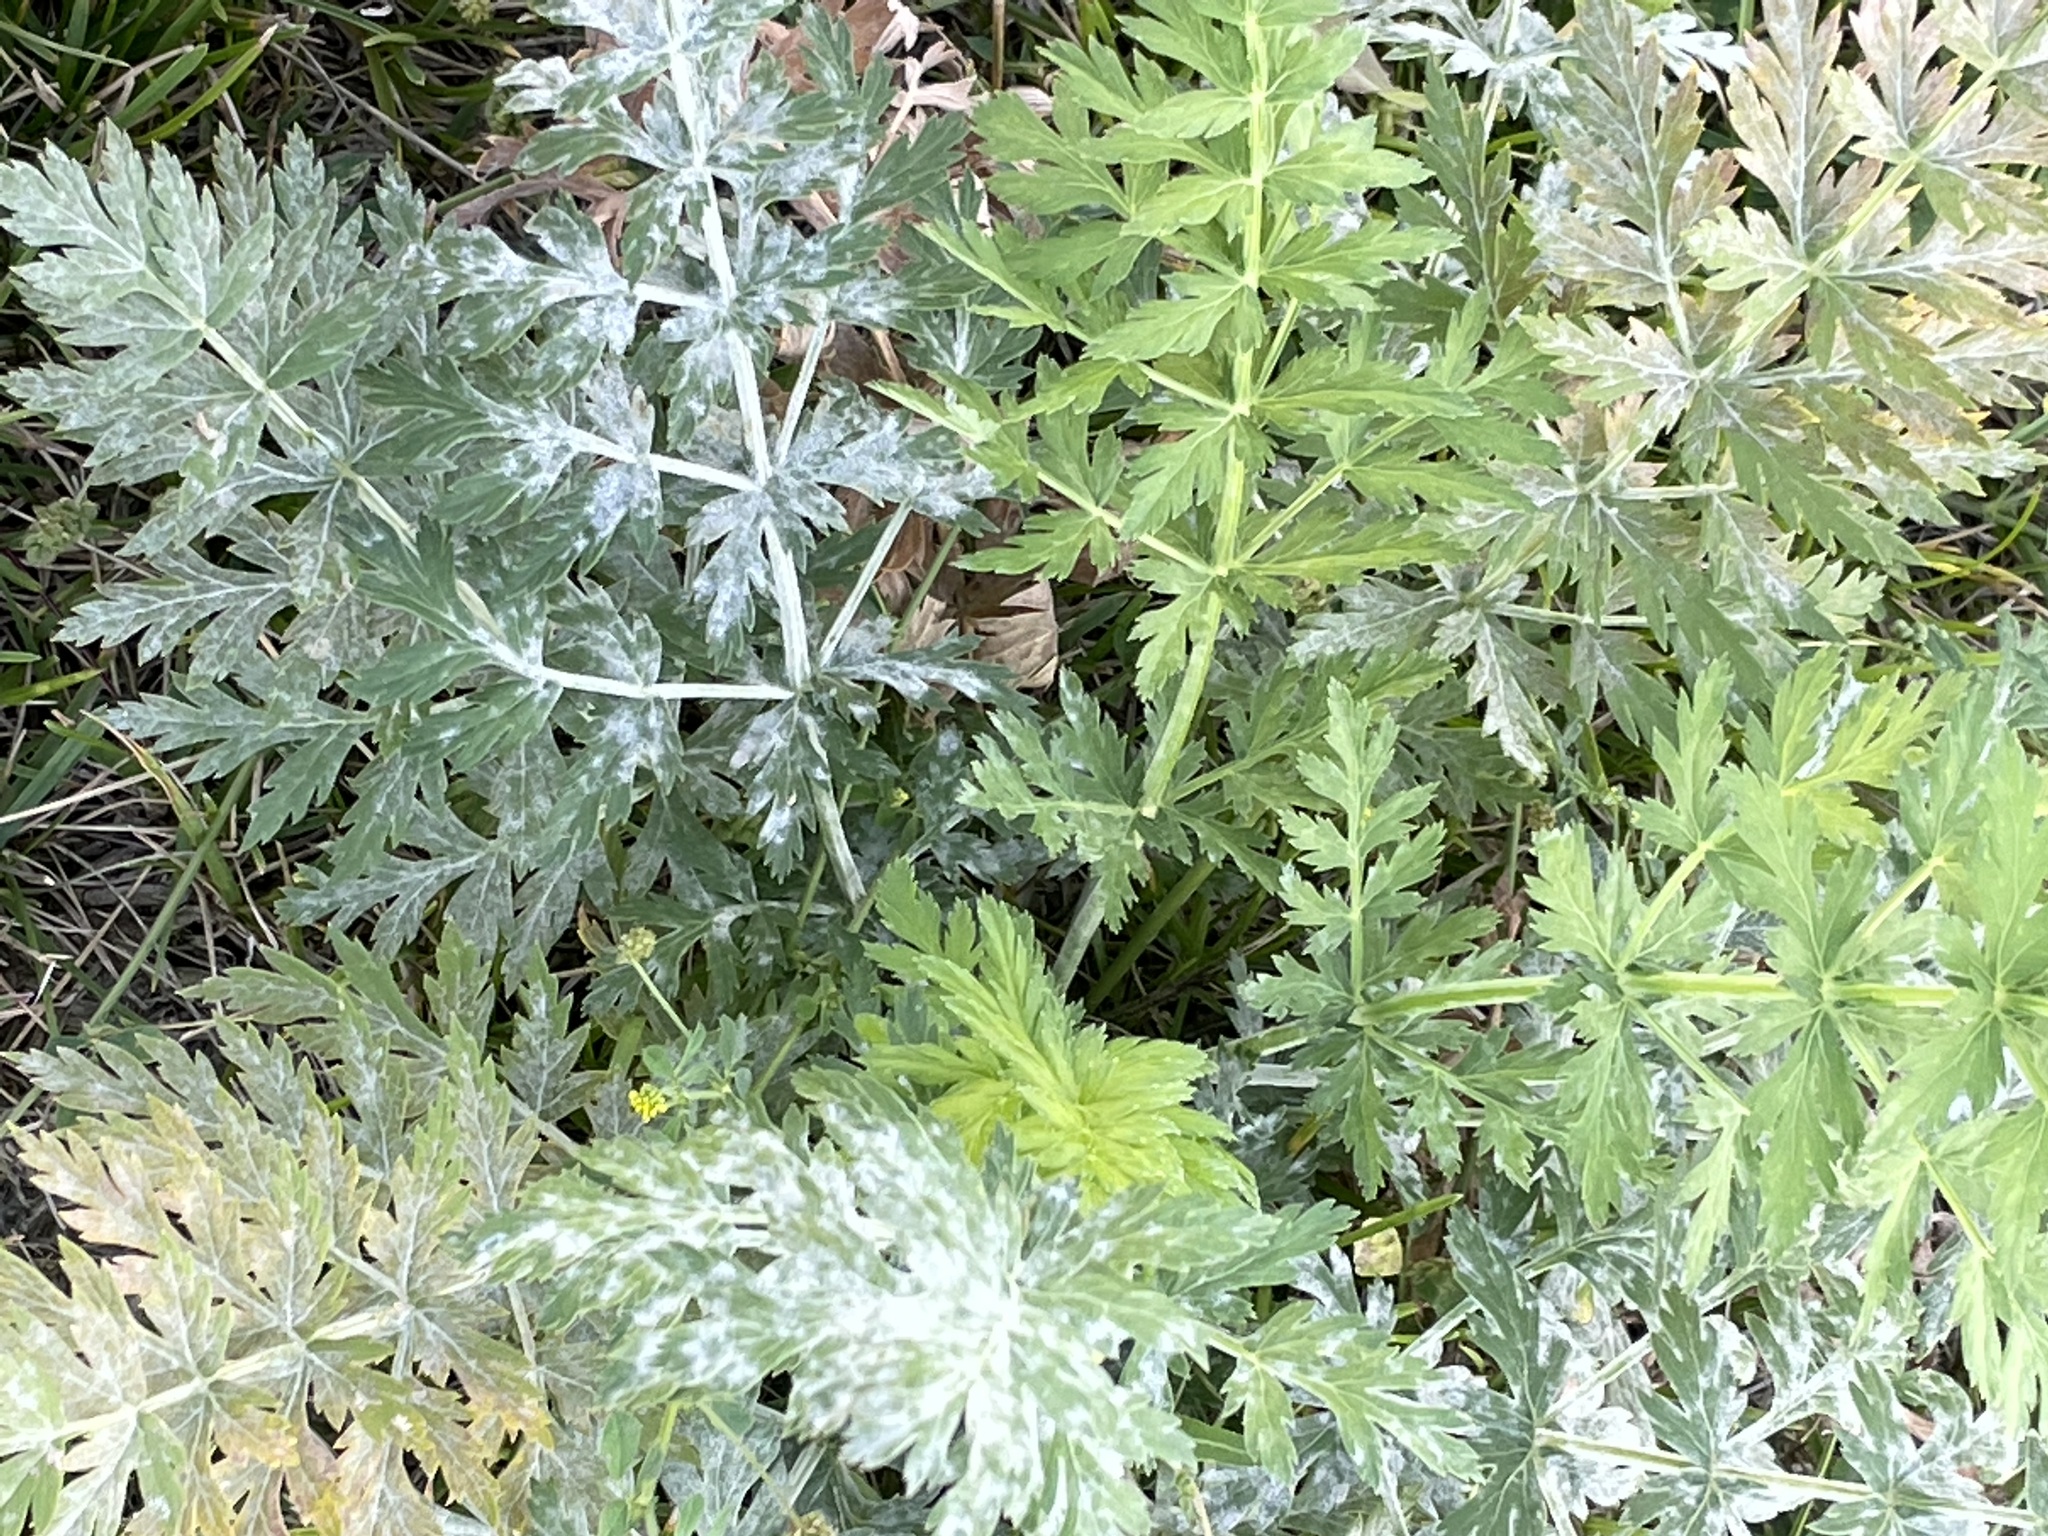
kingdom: Plantae
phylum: Tracheophyta
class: Magnoliopsida
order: Apiales
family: Apiaceae
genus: Seseli
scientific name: Seseli libanotis
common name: Mooncarrot
